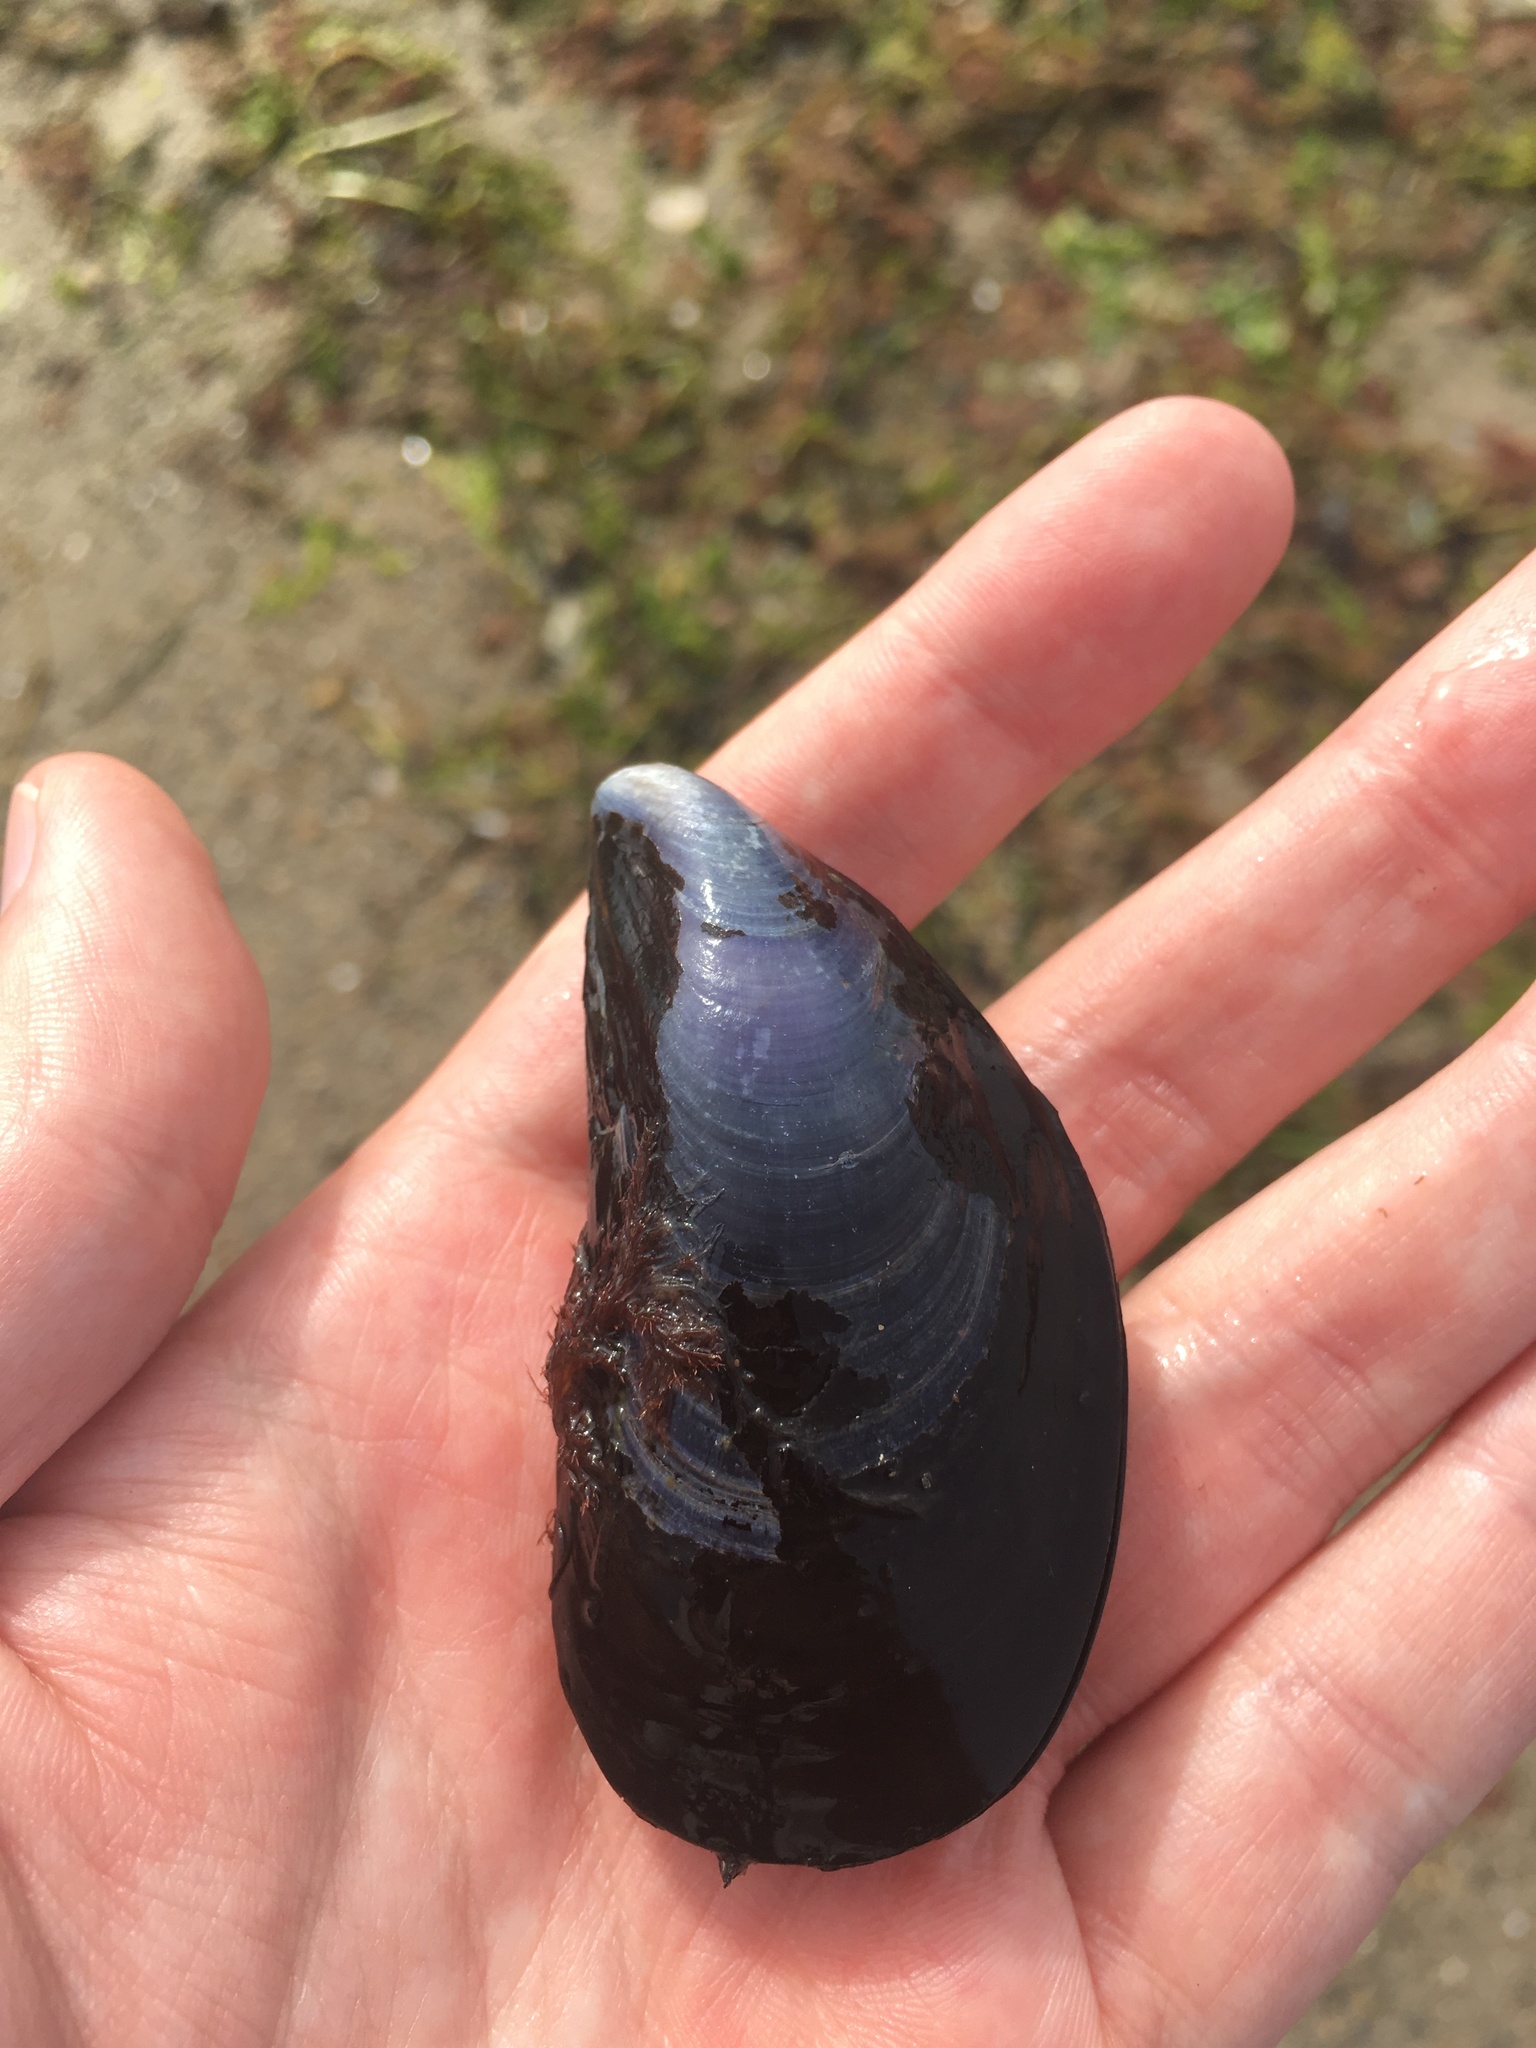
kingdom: Animalia
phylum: Mollusca
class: Bivalvia
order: Mytilida
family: Mytilidae
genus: Mytilus
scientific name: Mytilus edulis
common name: Blue mussel
